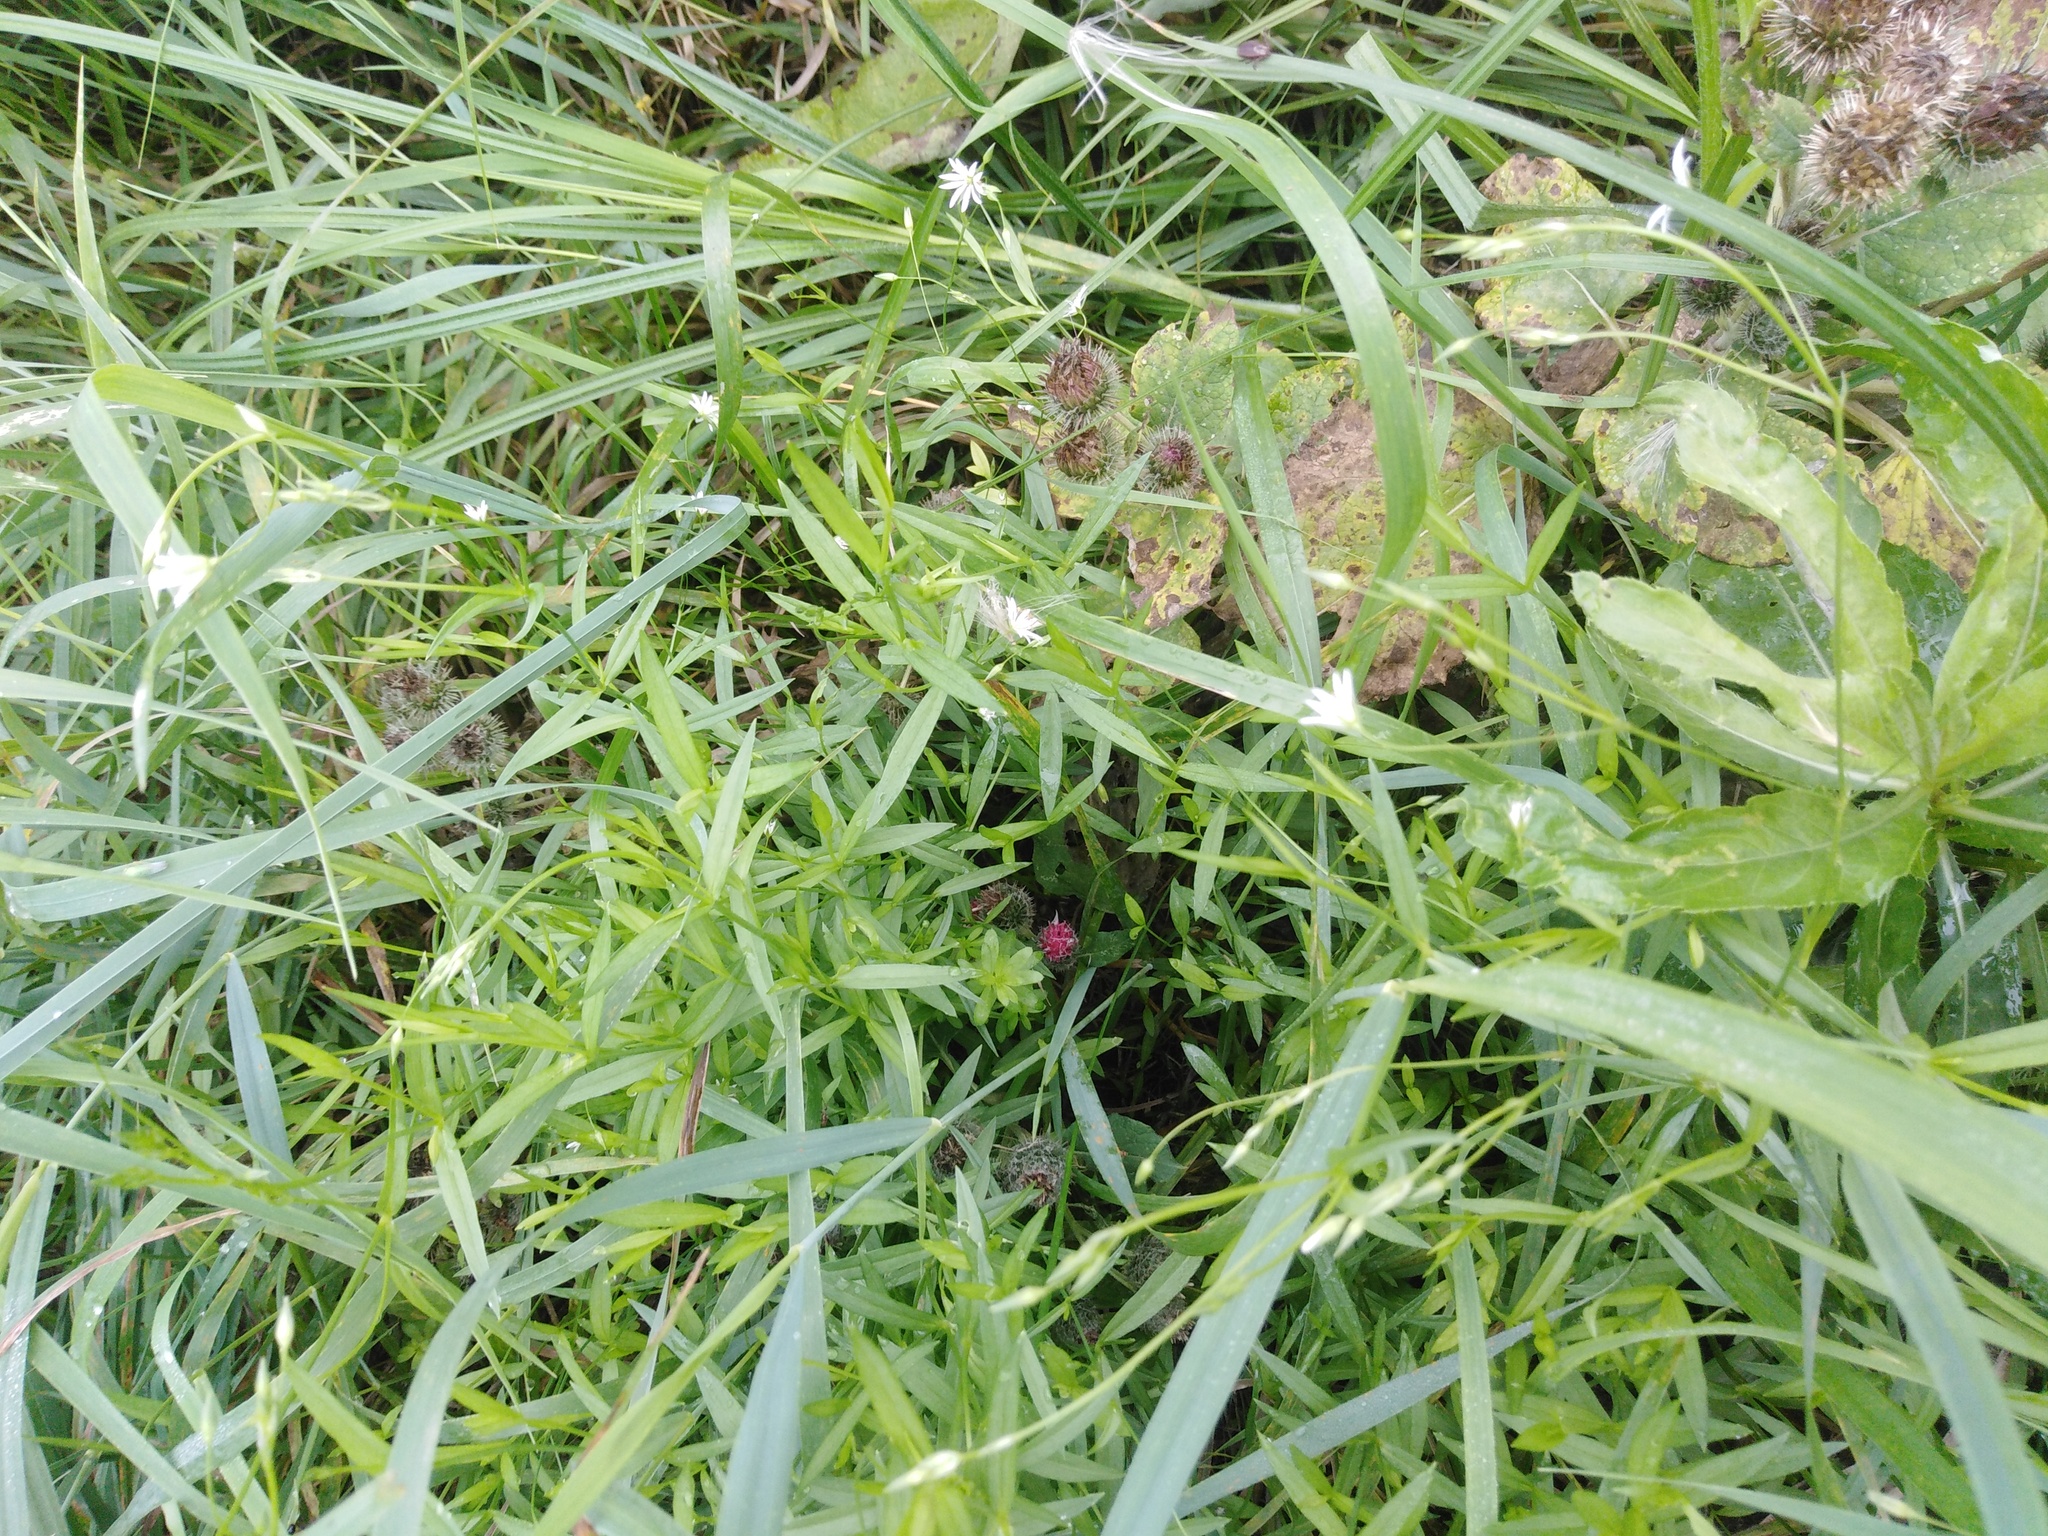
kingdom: Plantae
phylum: Tracheophyta
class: Magnoliopsida
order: Caryophyllales
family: Caryophyllaceae
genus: Stellaria
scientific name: Stellaria graminea
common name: Grass-like starwort
